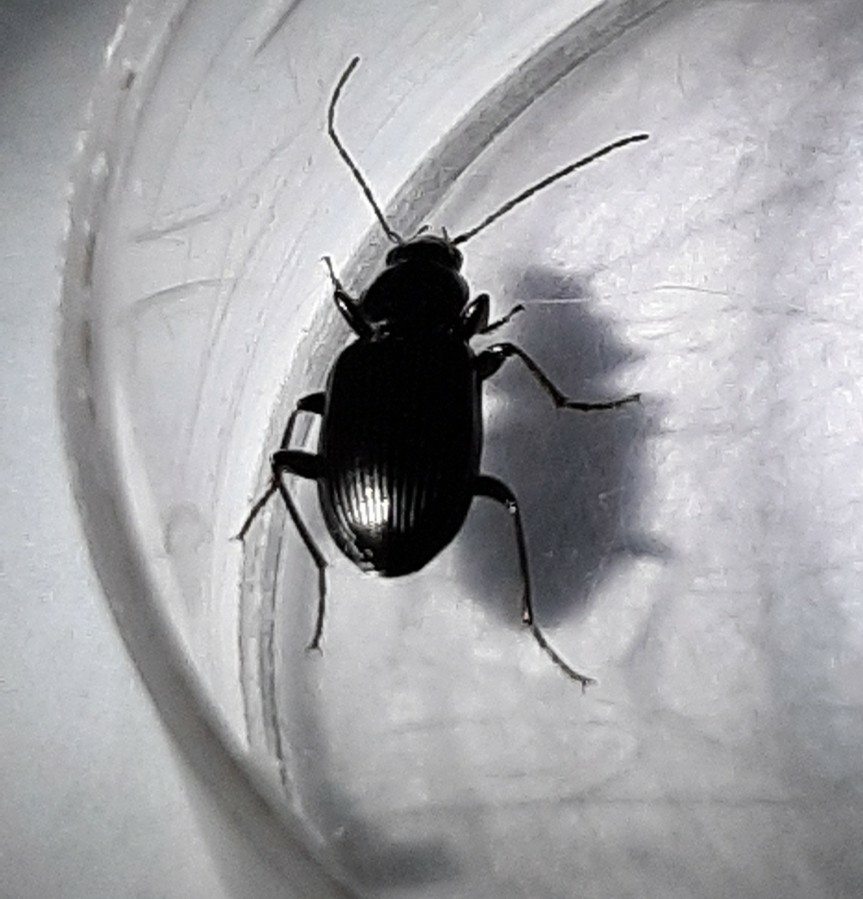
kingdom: Animalia
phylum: Arthropoda
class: Insecta
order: Coleoptera
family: Carabidae
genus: Agonum
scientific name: Agonum punctiforme
